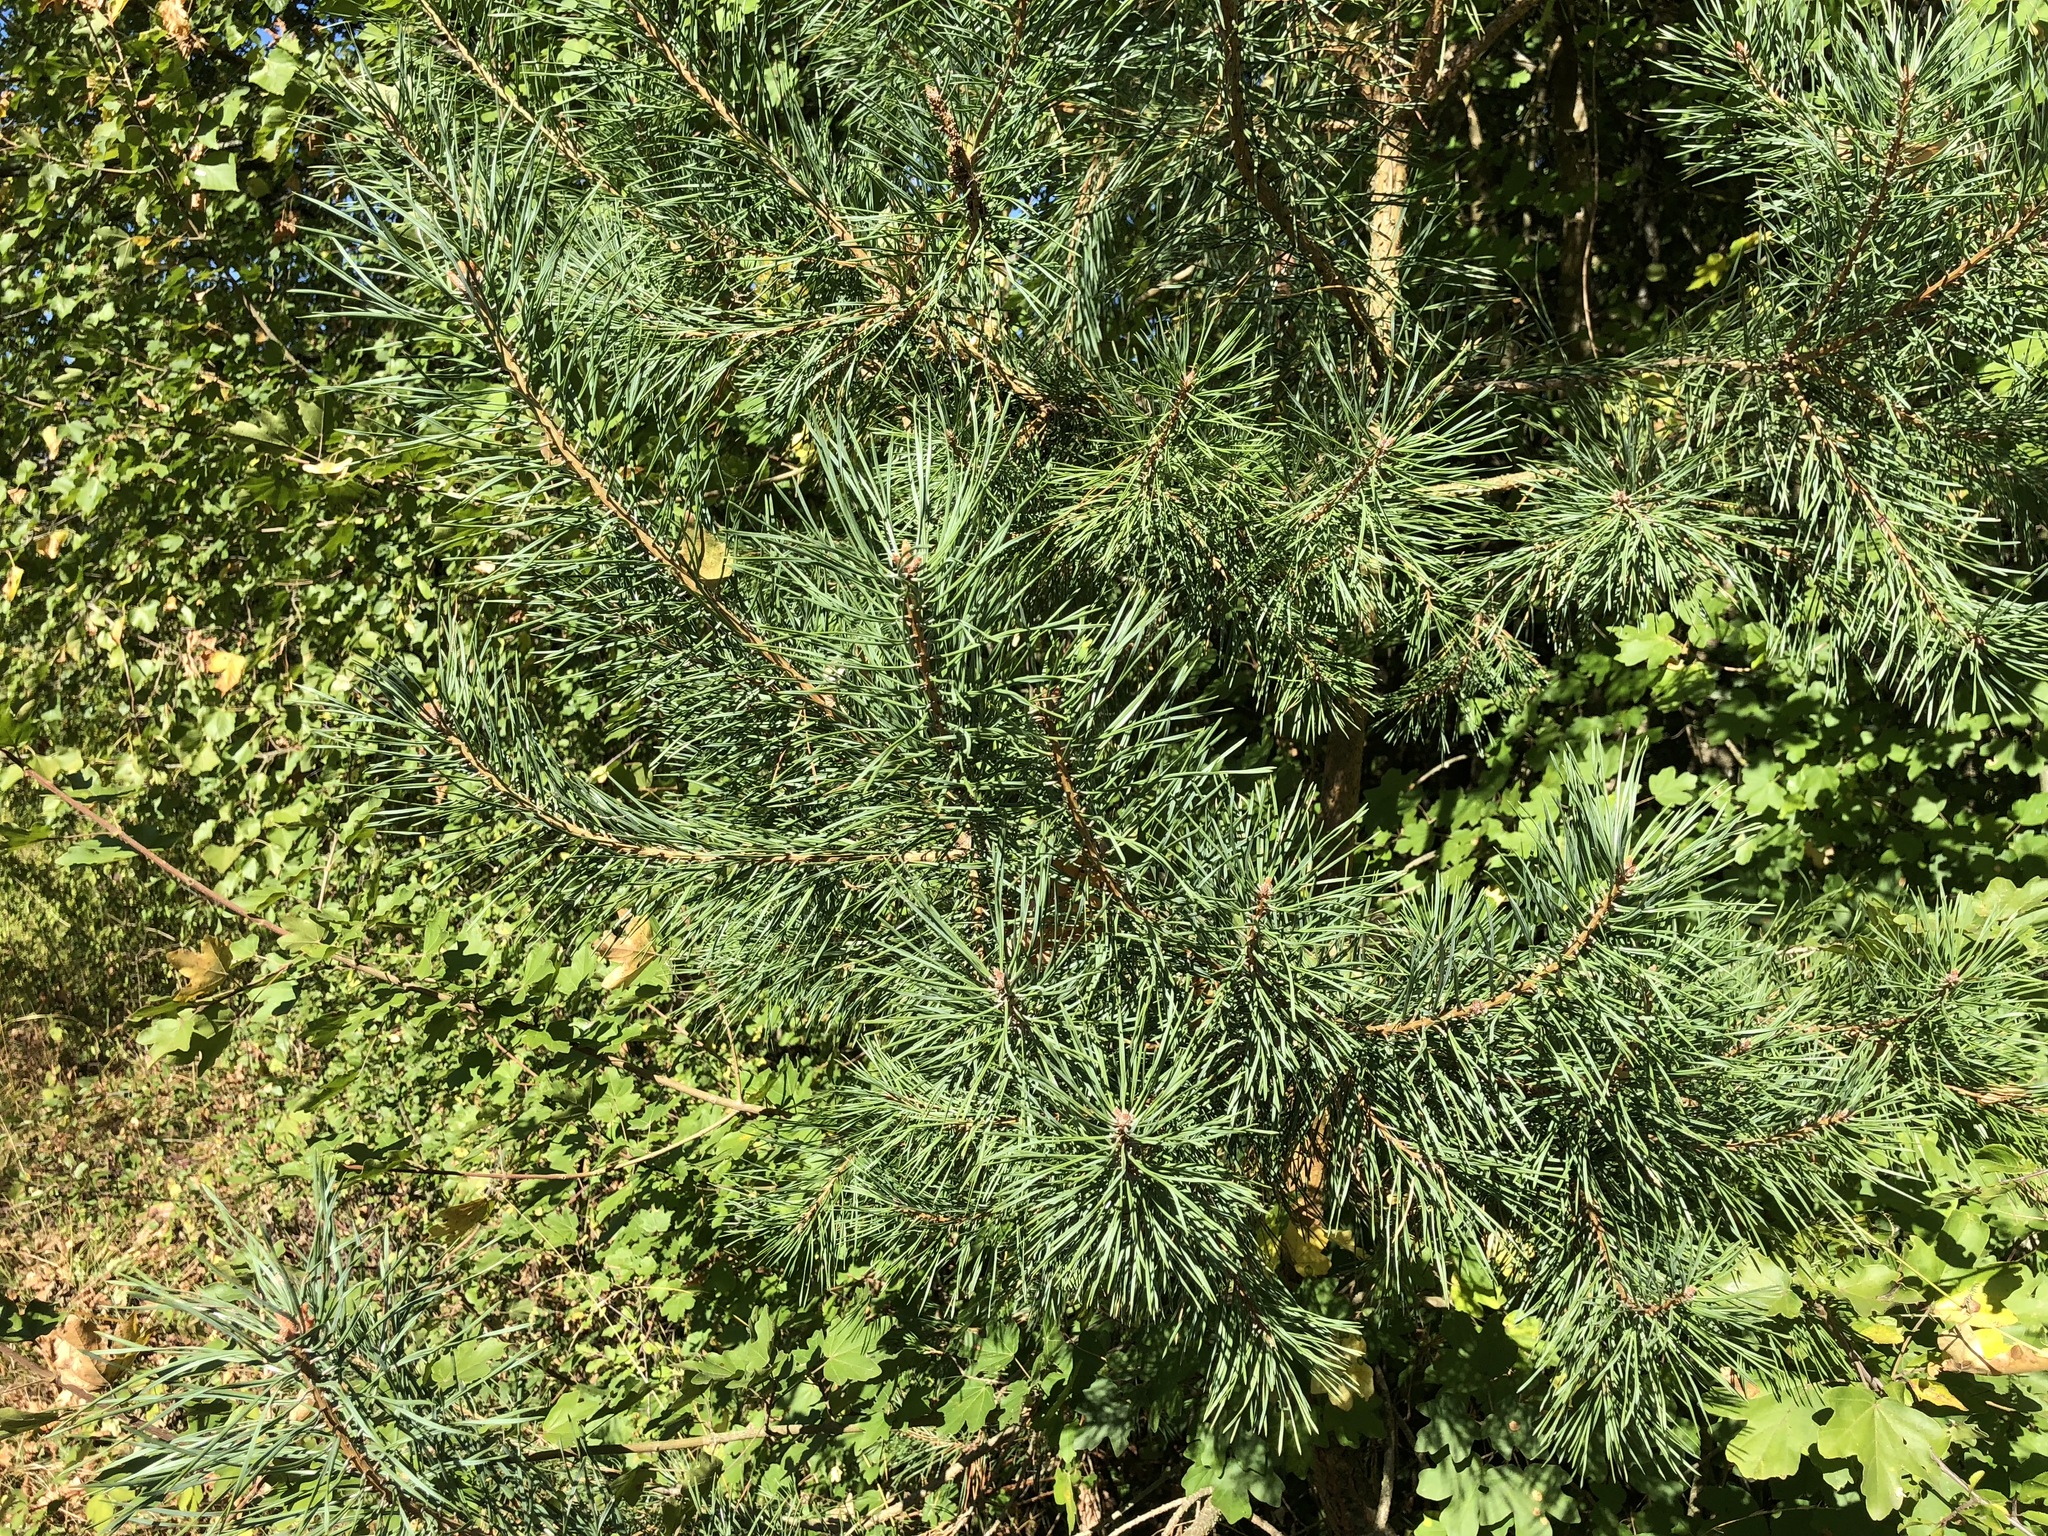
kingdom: Plantae
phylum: Tracheophyta
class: Pinopsida
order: Pinales
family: Pinaceae
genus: Pinus
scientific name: Pinus sylvestris
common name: Scots pine
